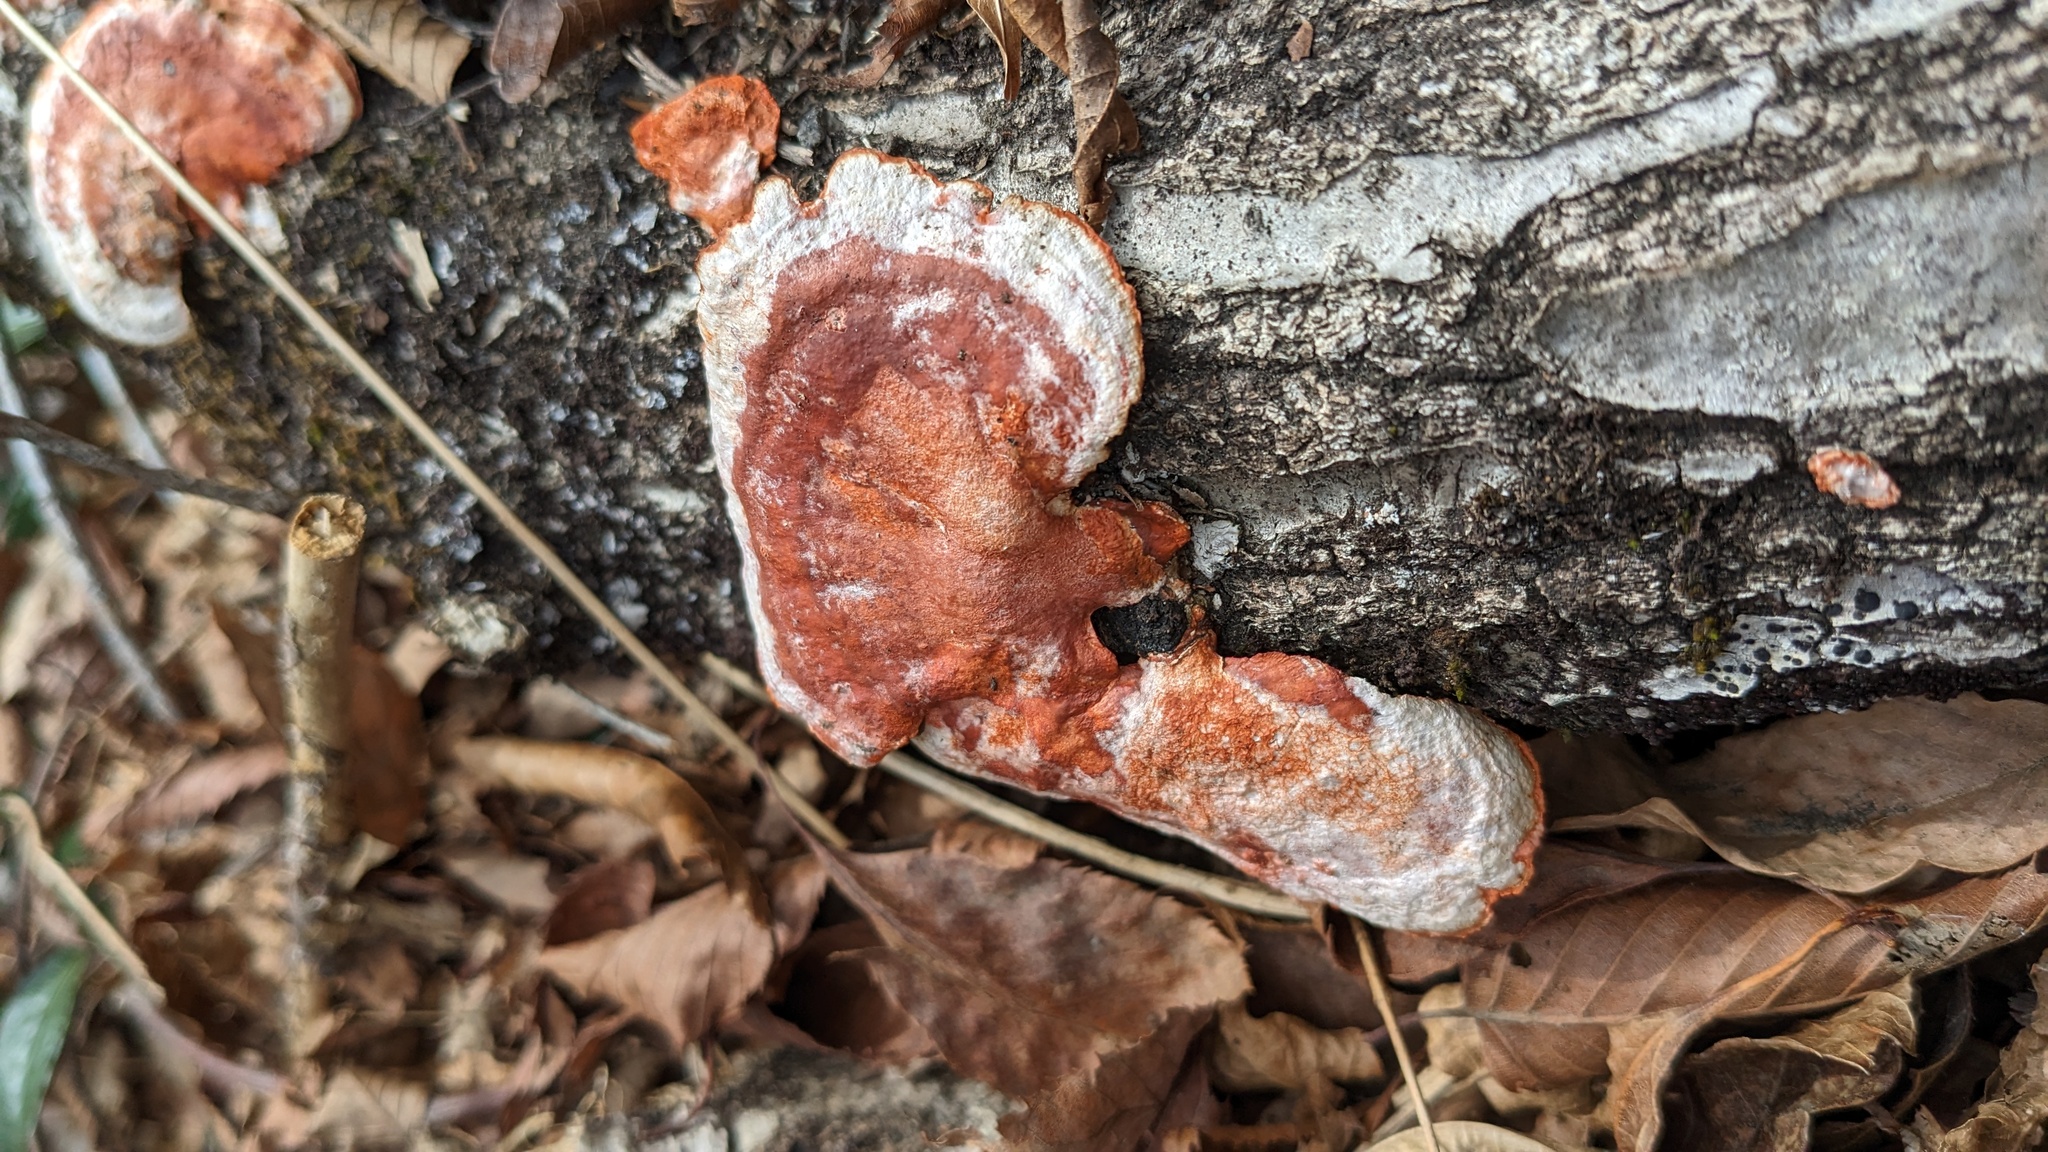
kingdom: Fungi
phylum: Basidiomycota
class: Agaricomycetes
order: Polyporales
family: Polyporaceae
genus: Trametes
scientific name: Trametes coccinea
